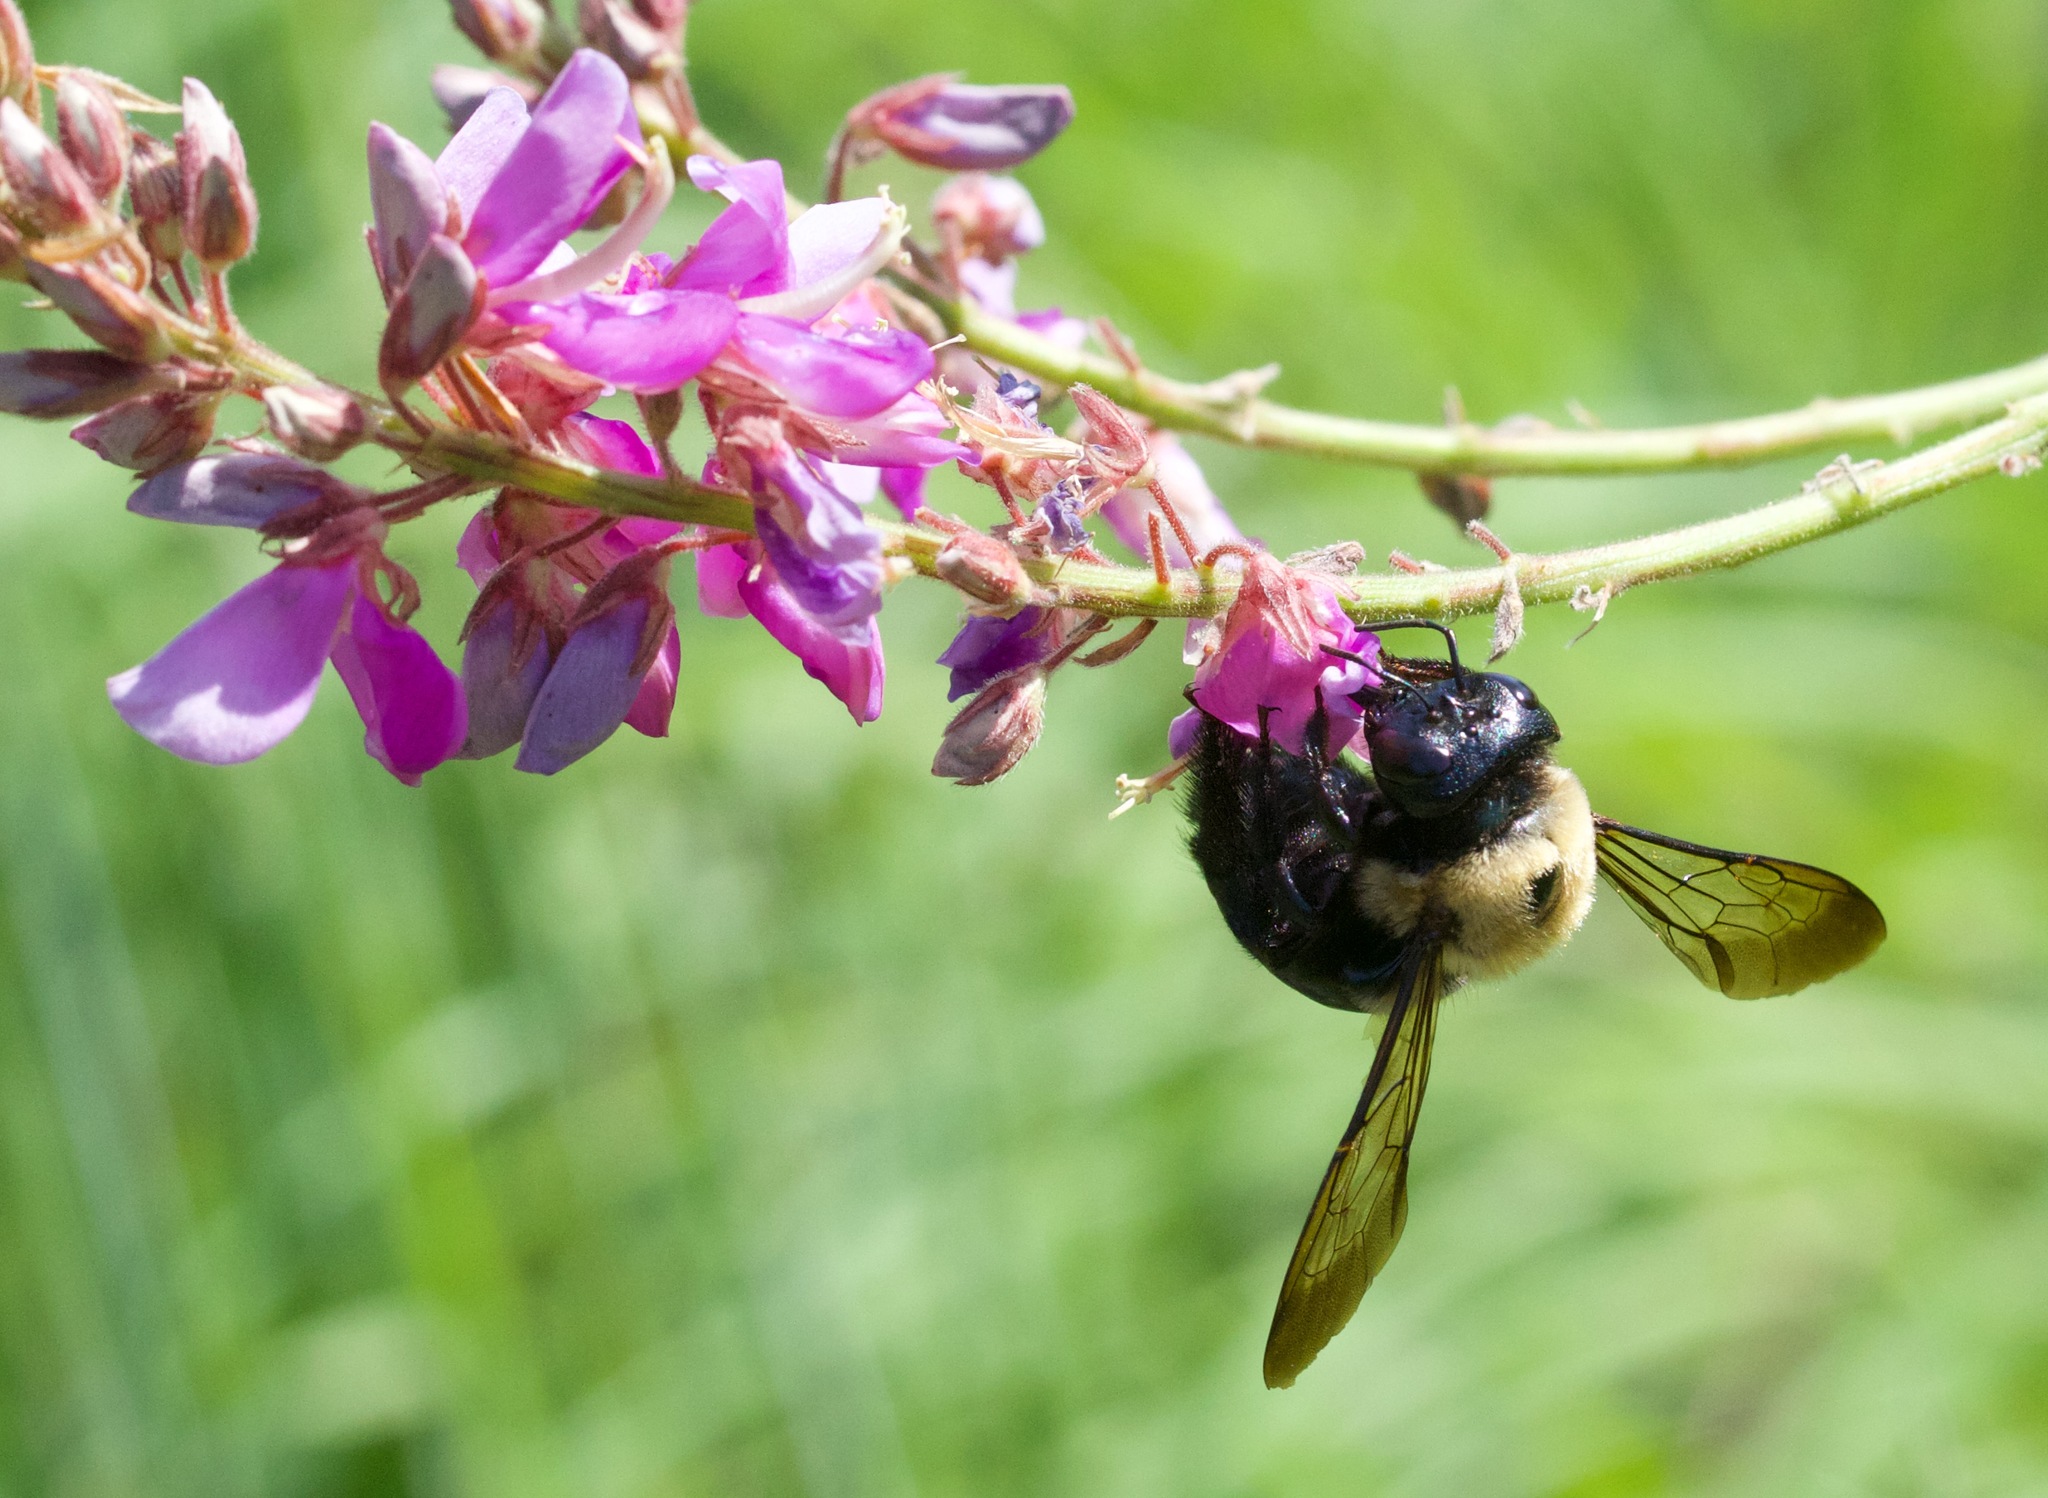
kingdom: Animalia
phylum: Arthropoda
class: Insecta
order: Hymenoptera
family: Apidae
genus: Xylocopa
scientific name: Xylocopa virginica
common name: Carpenter bee
